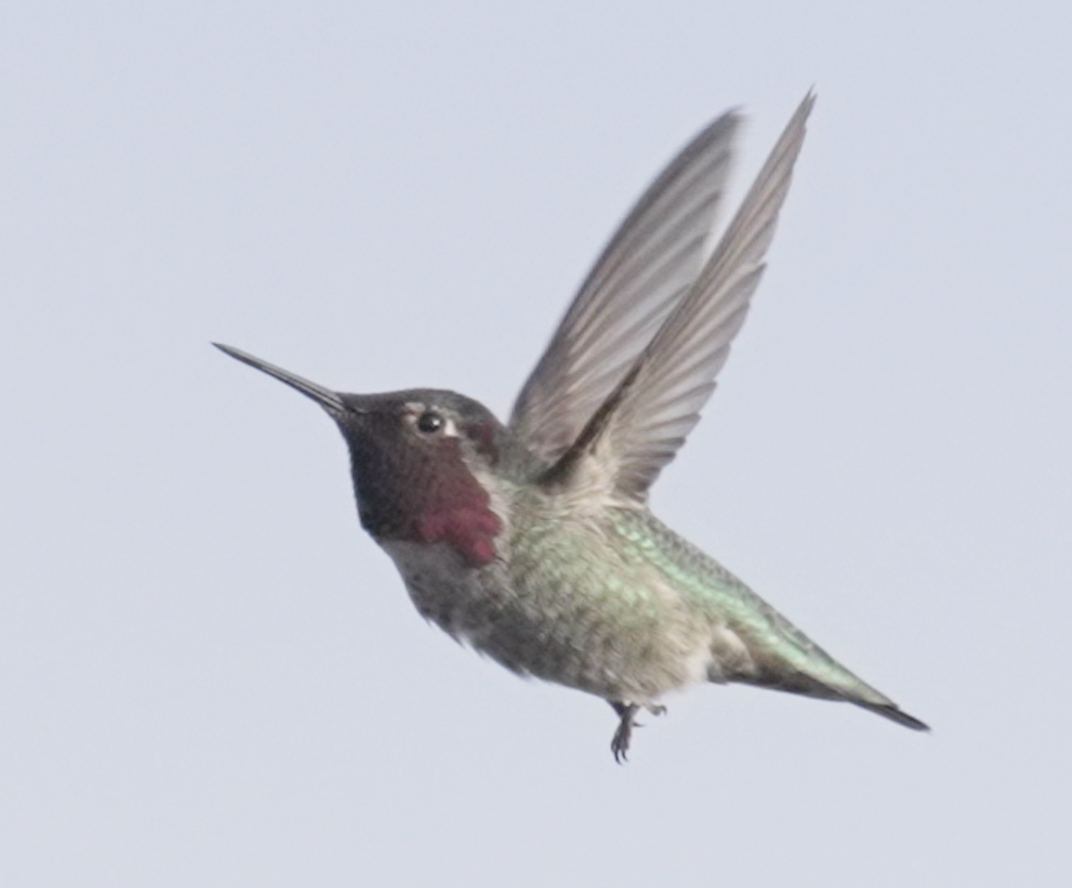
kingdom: Animalia
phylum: Chordata
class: Aves
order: Apodiformes
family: Trochilidae
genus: Calypte
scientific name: Calypte anna
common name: Anna's hummingbird
